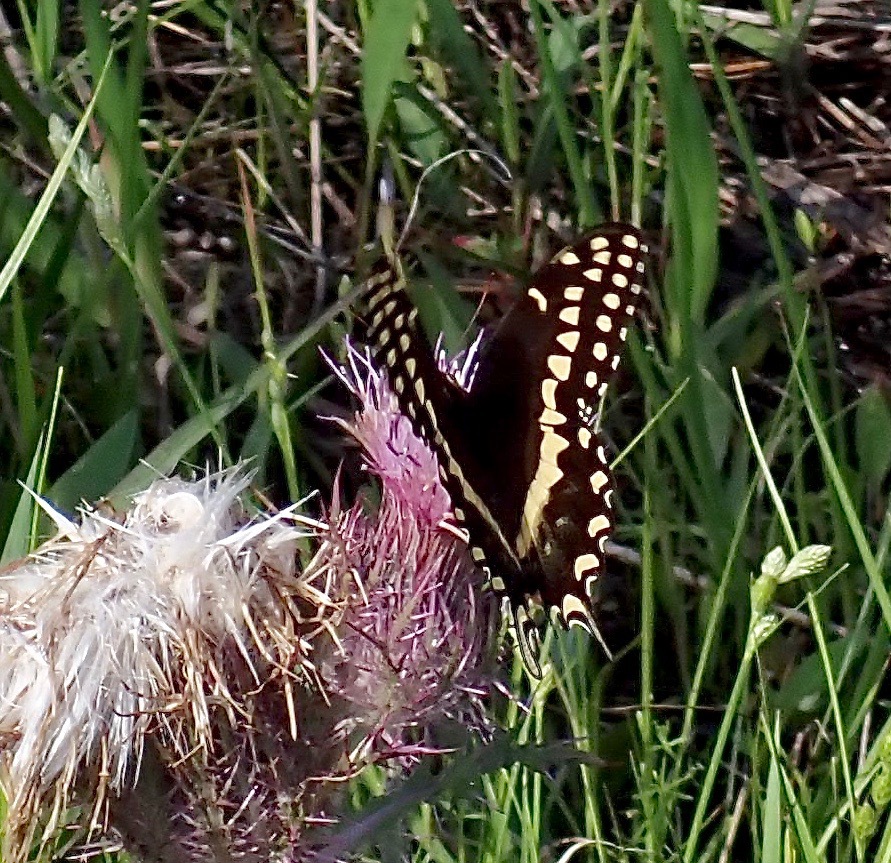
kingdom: Animalia
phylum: Arthropoda
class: Insecta
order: Lepidoptera
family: Papilionidae
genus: Papilio
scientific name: Papilio palamedes
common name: Palamedes swallowtail
